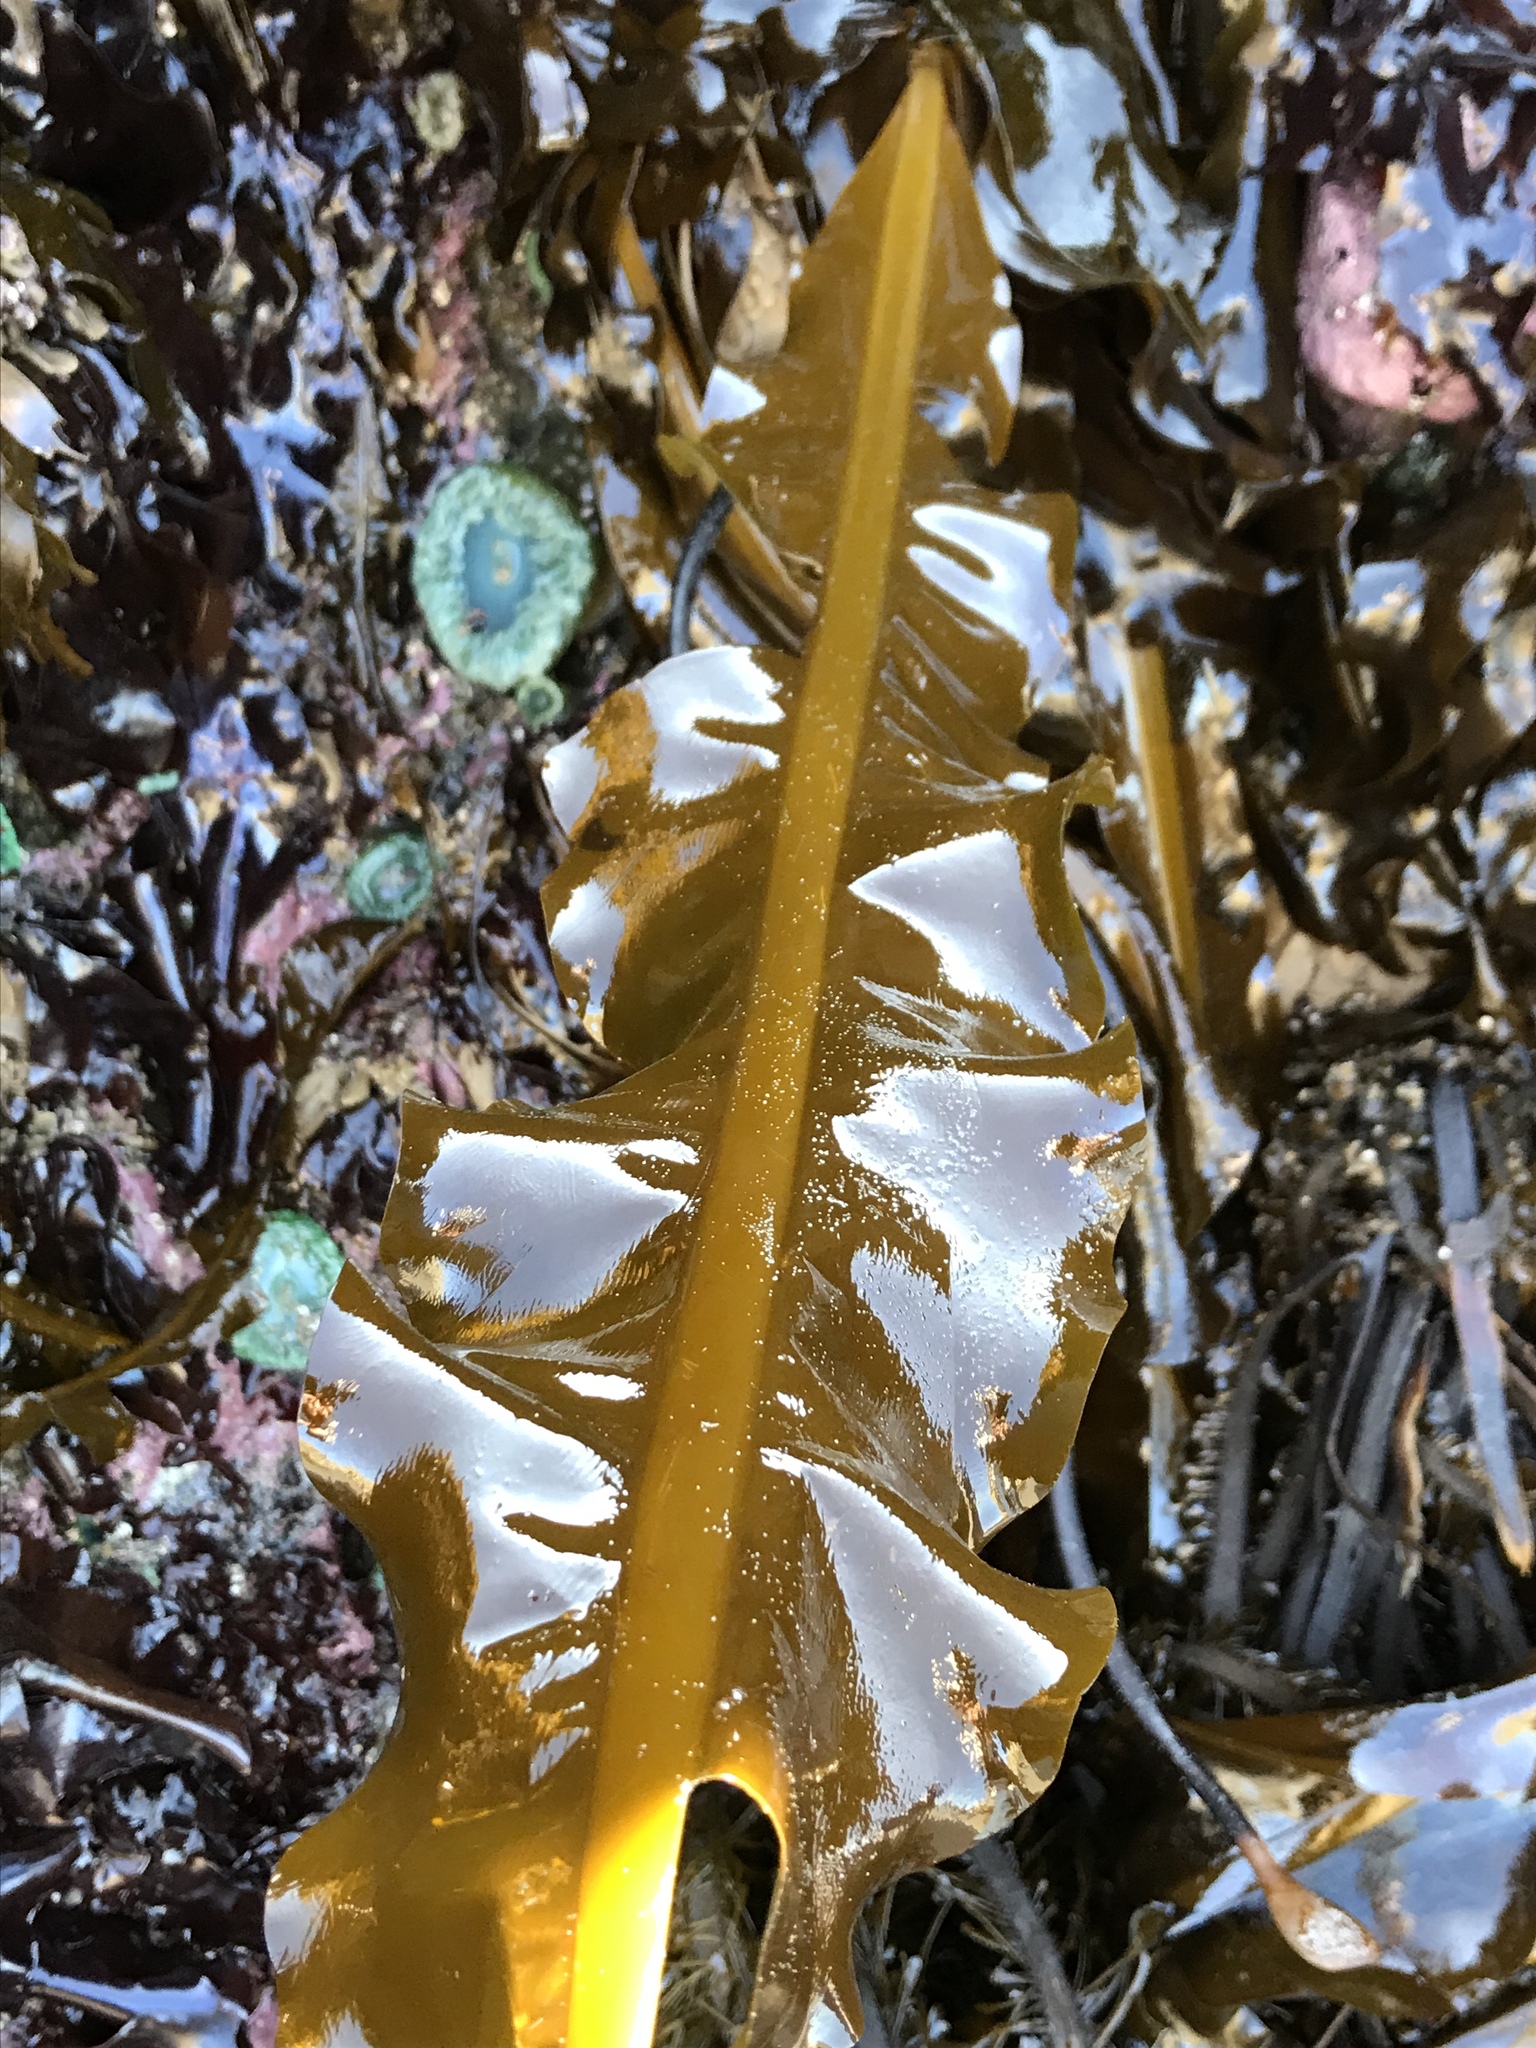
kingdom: Chromista
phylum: Ochrophyta
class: Phaeophyceae
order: Laminariales
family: Alariaceae
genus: Alaria
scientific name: Alaria marginata
